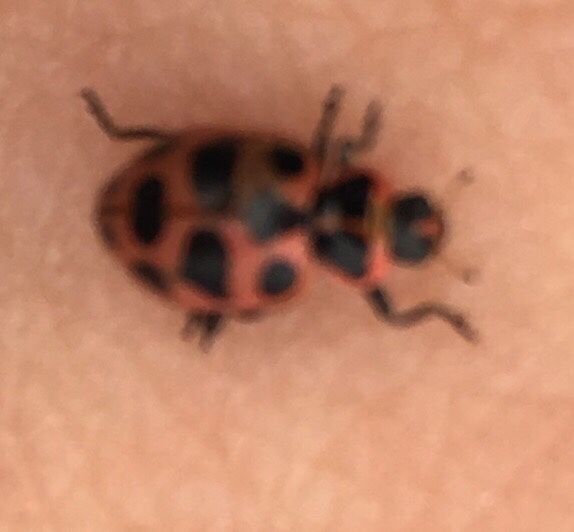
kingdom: Animalia
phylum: Arthropoda
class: Insecta
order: Coleoptera
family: Coccinellidae
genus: Coleomegilla
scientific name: Coleomegilla maculata
